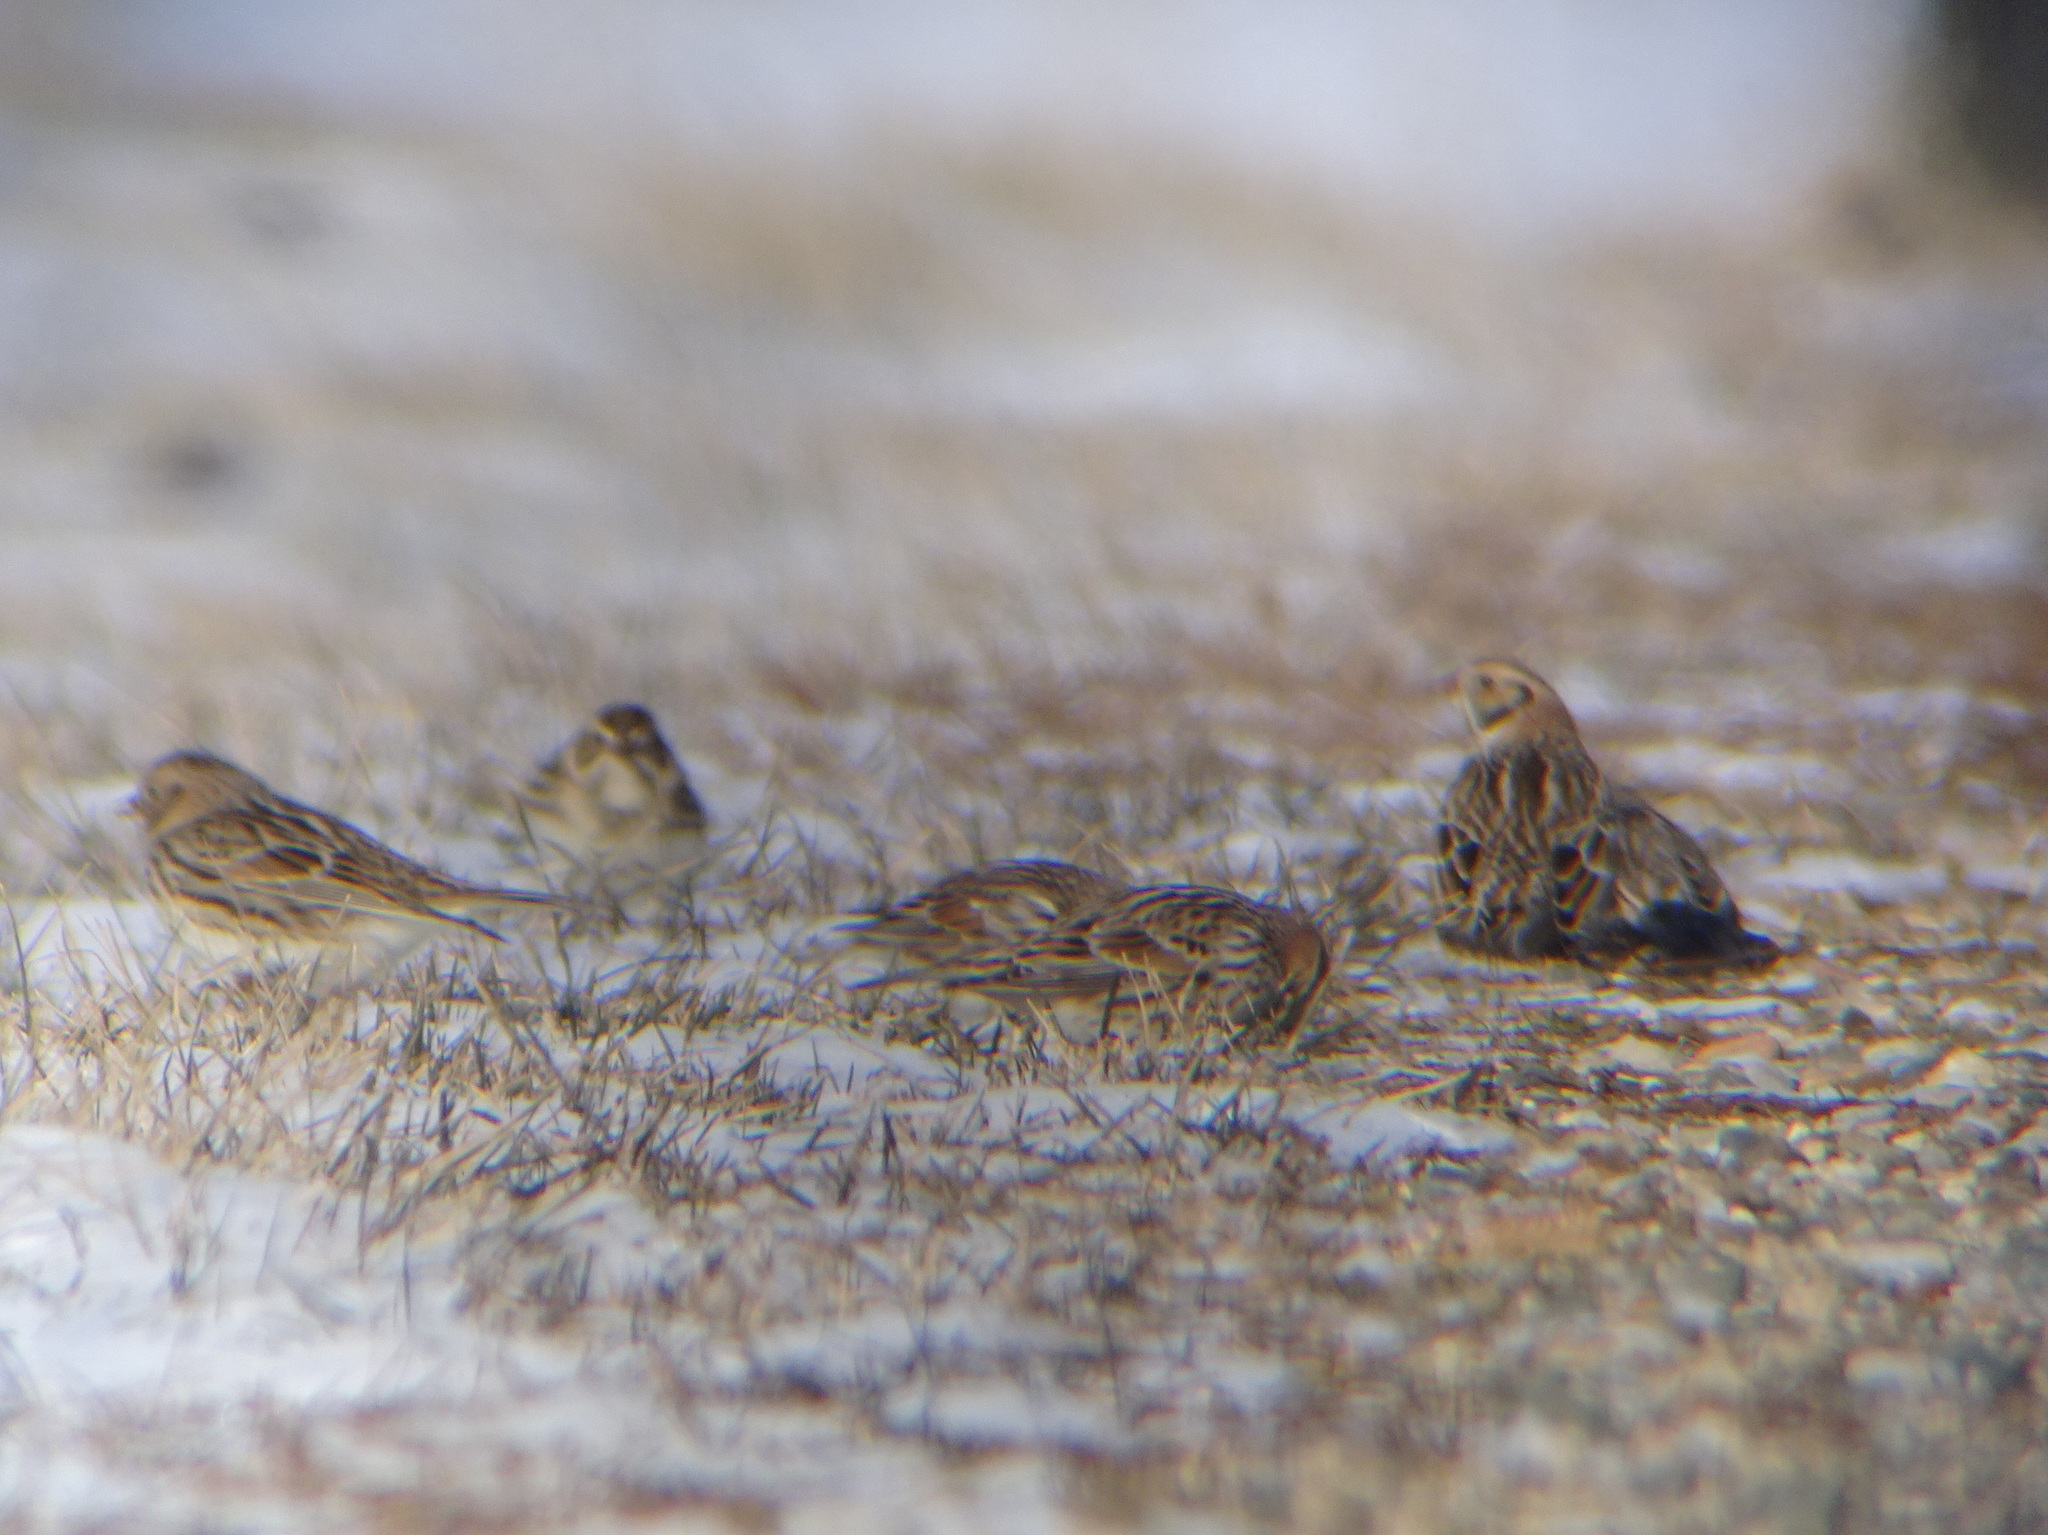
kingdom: Animalia
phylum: Chordata
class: Aves
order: Passeriformes
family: Calcariidae
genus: Calcarius
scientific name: Calcarius lapponicus
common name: Lapland longspur
